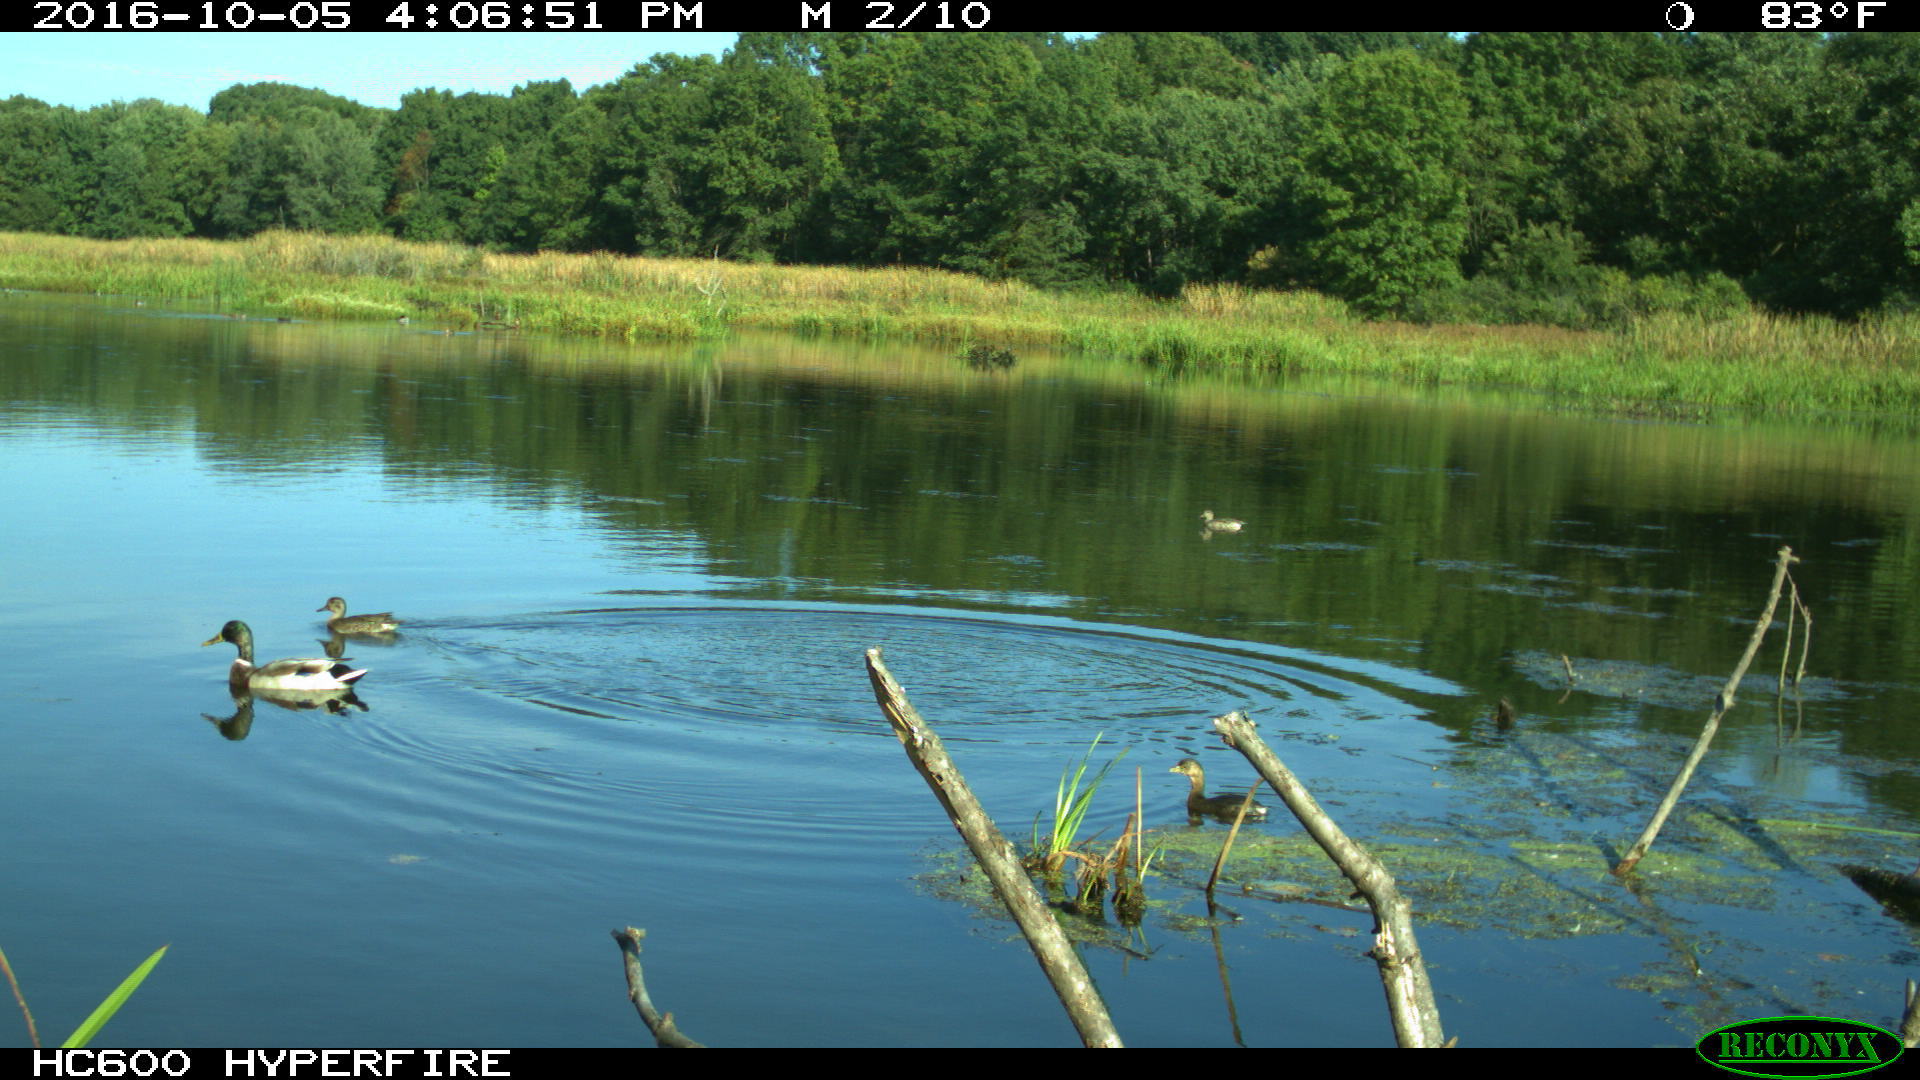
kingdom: Animalia
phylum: Chordata
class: Aves
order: Podicipediformes
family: Podicipedidae
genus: Podilymbus
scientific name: Podilymbus podiceps
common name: Pied-billed grebe
